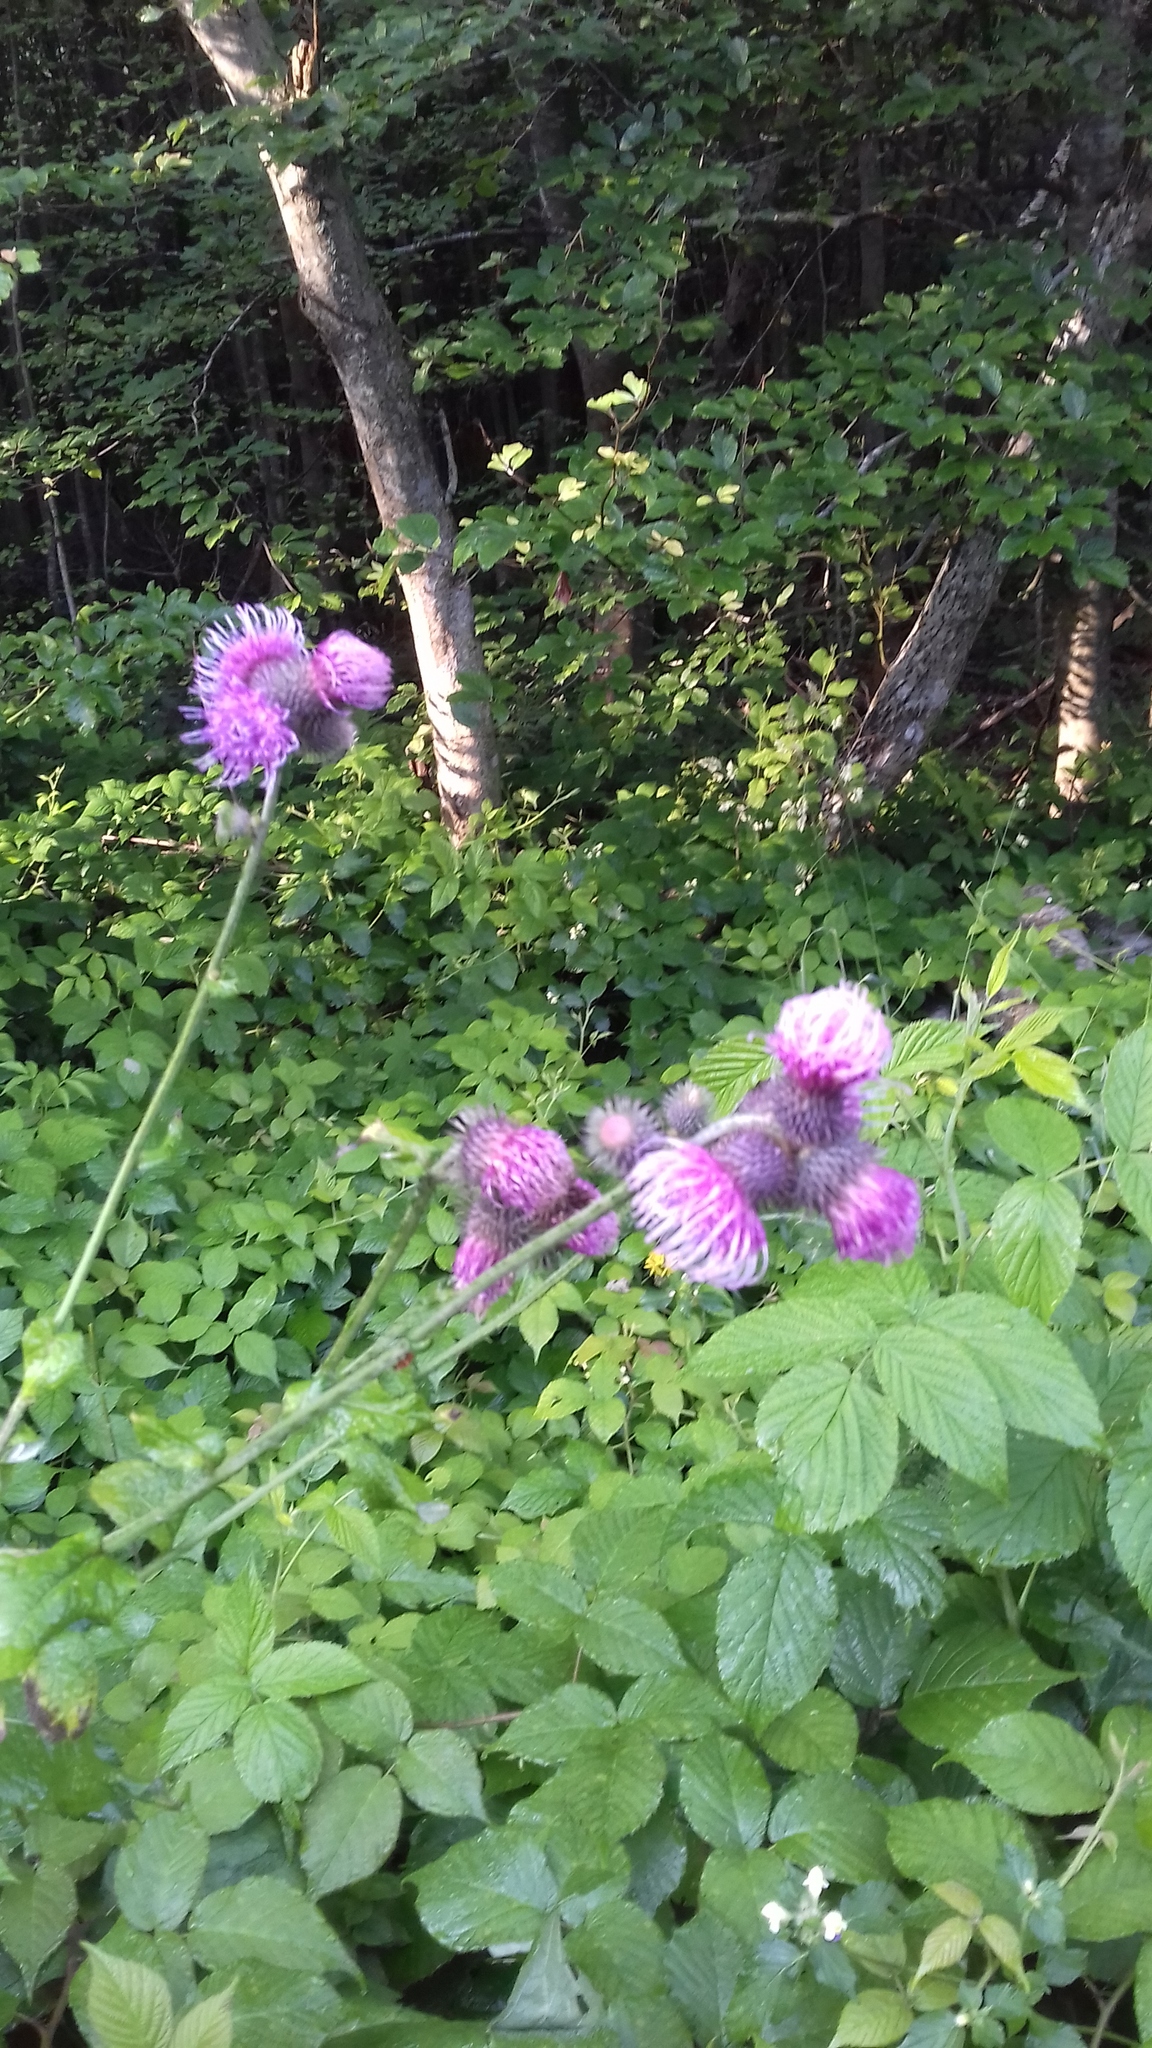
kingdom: Plantae
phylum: Tracheophyta
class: Magnoliopsida
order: Asterales
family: Asteraceae
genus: Cirsium
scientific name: Cirsium rivulare
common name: Brook thistle
